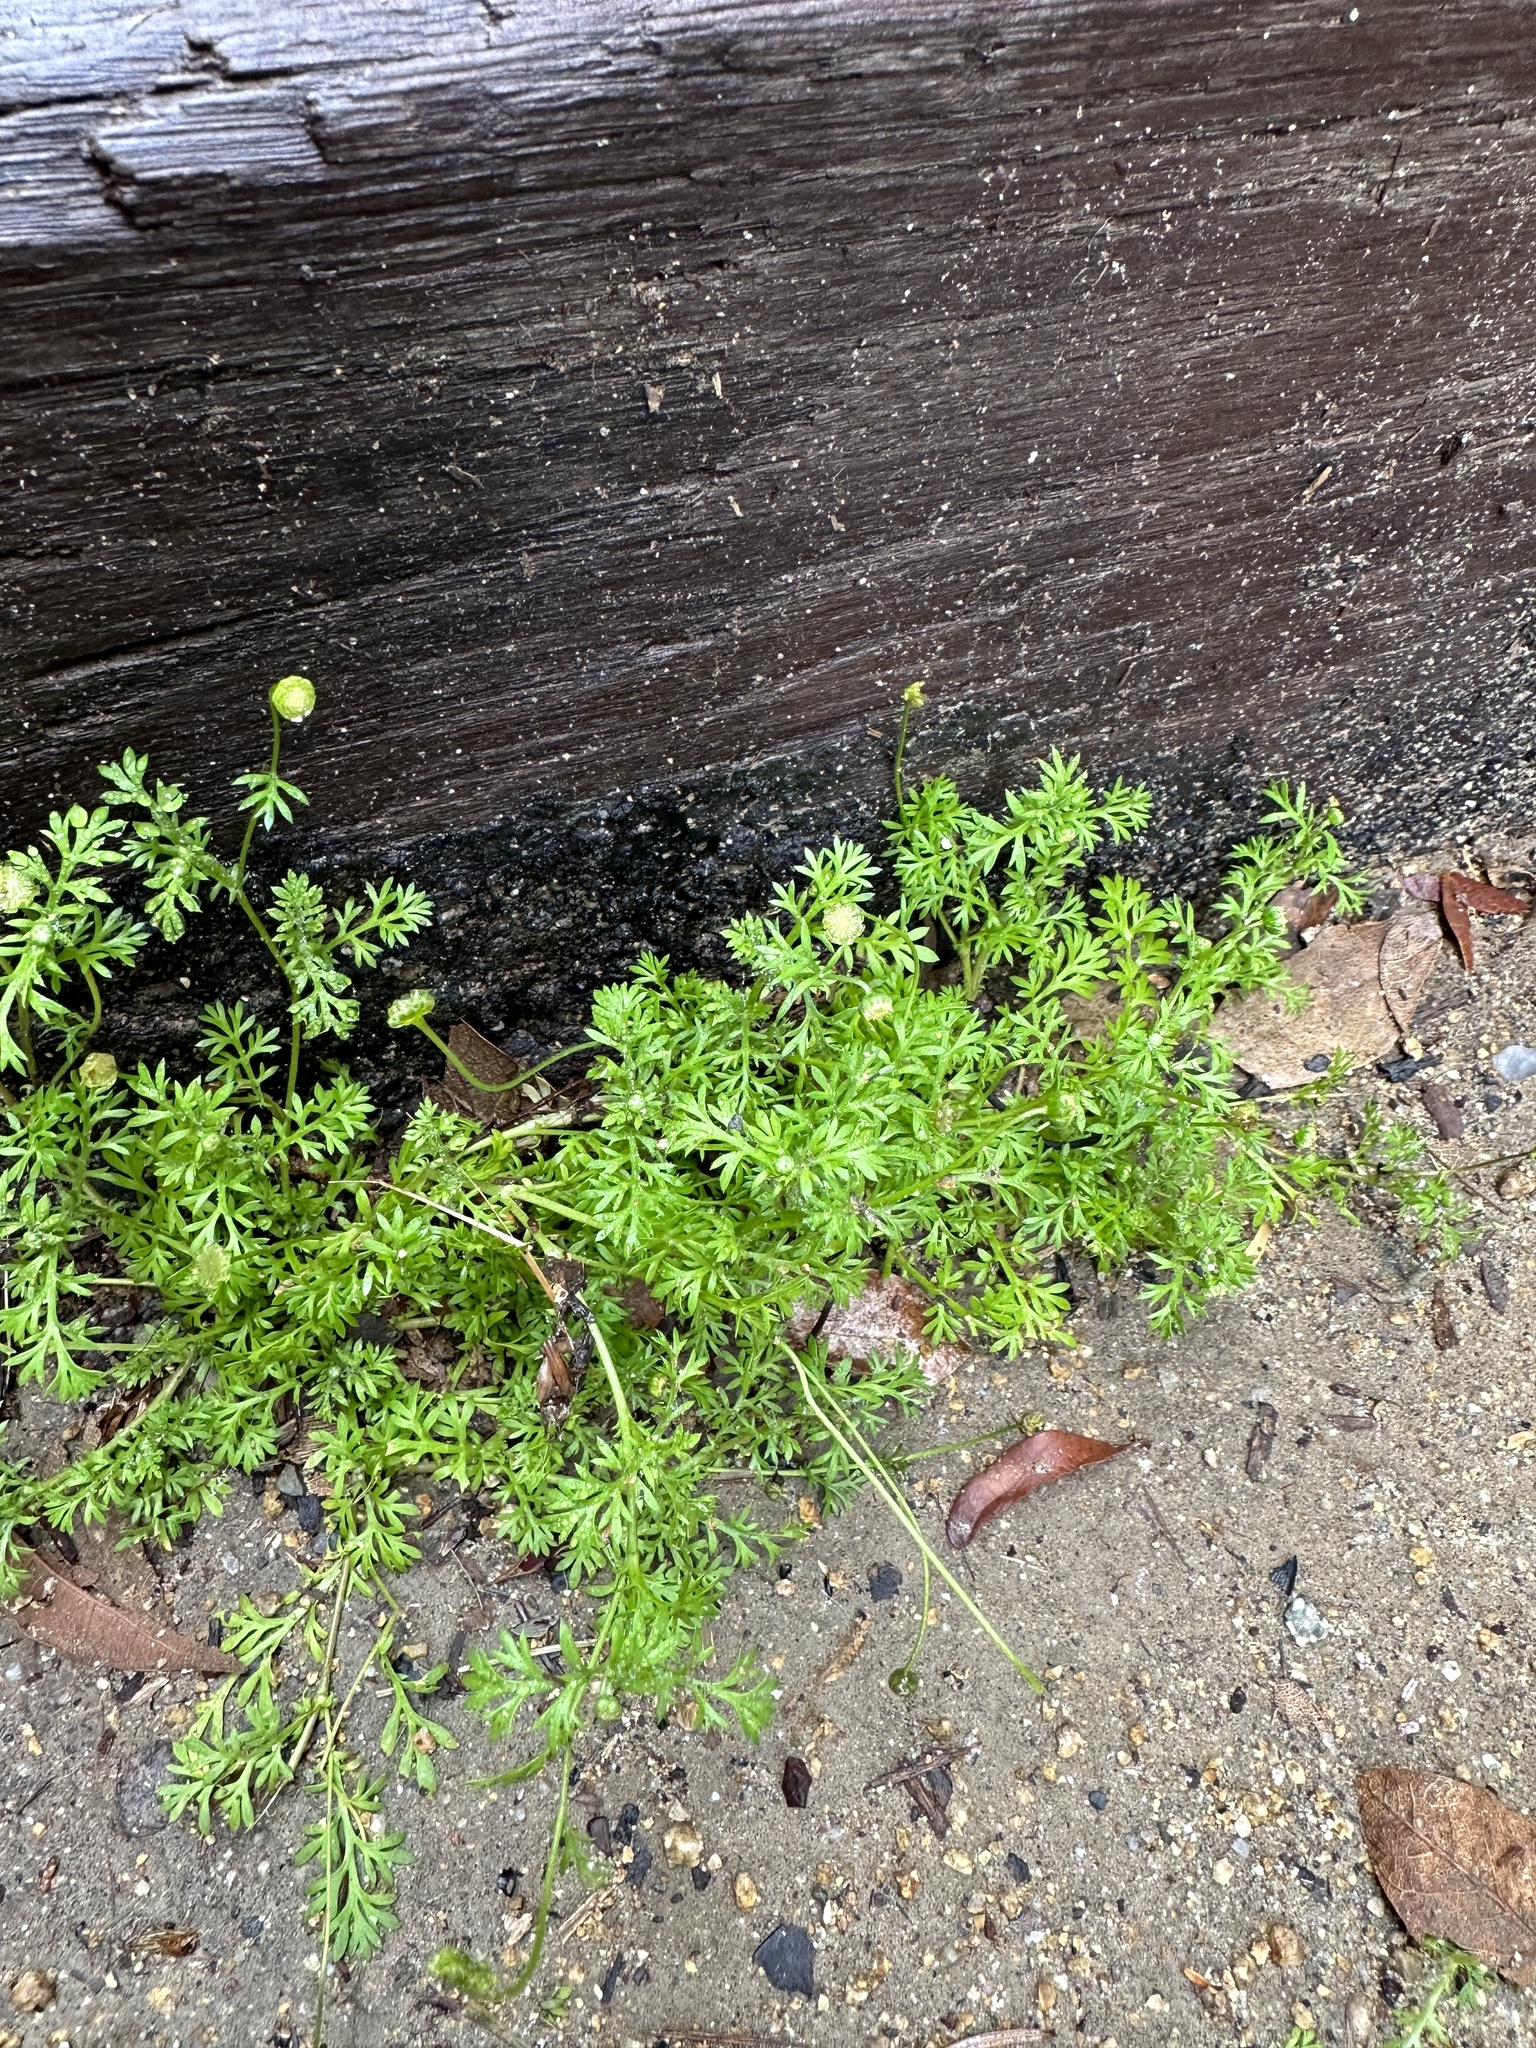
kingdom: Plantae
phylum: Tracheophyta
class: Magnoliopsida
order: Asterales
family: Asteraceae
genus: Cotula
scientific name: Cotula australis
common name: Australian waterbuttons
